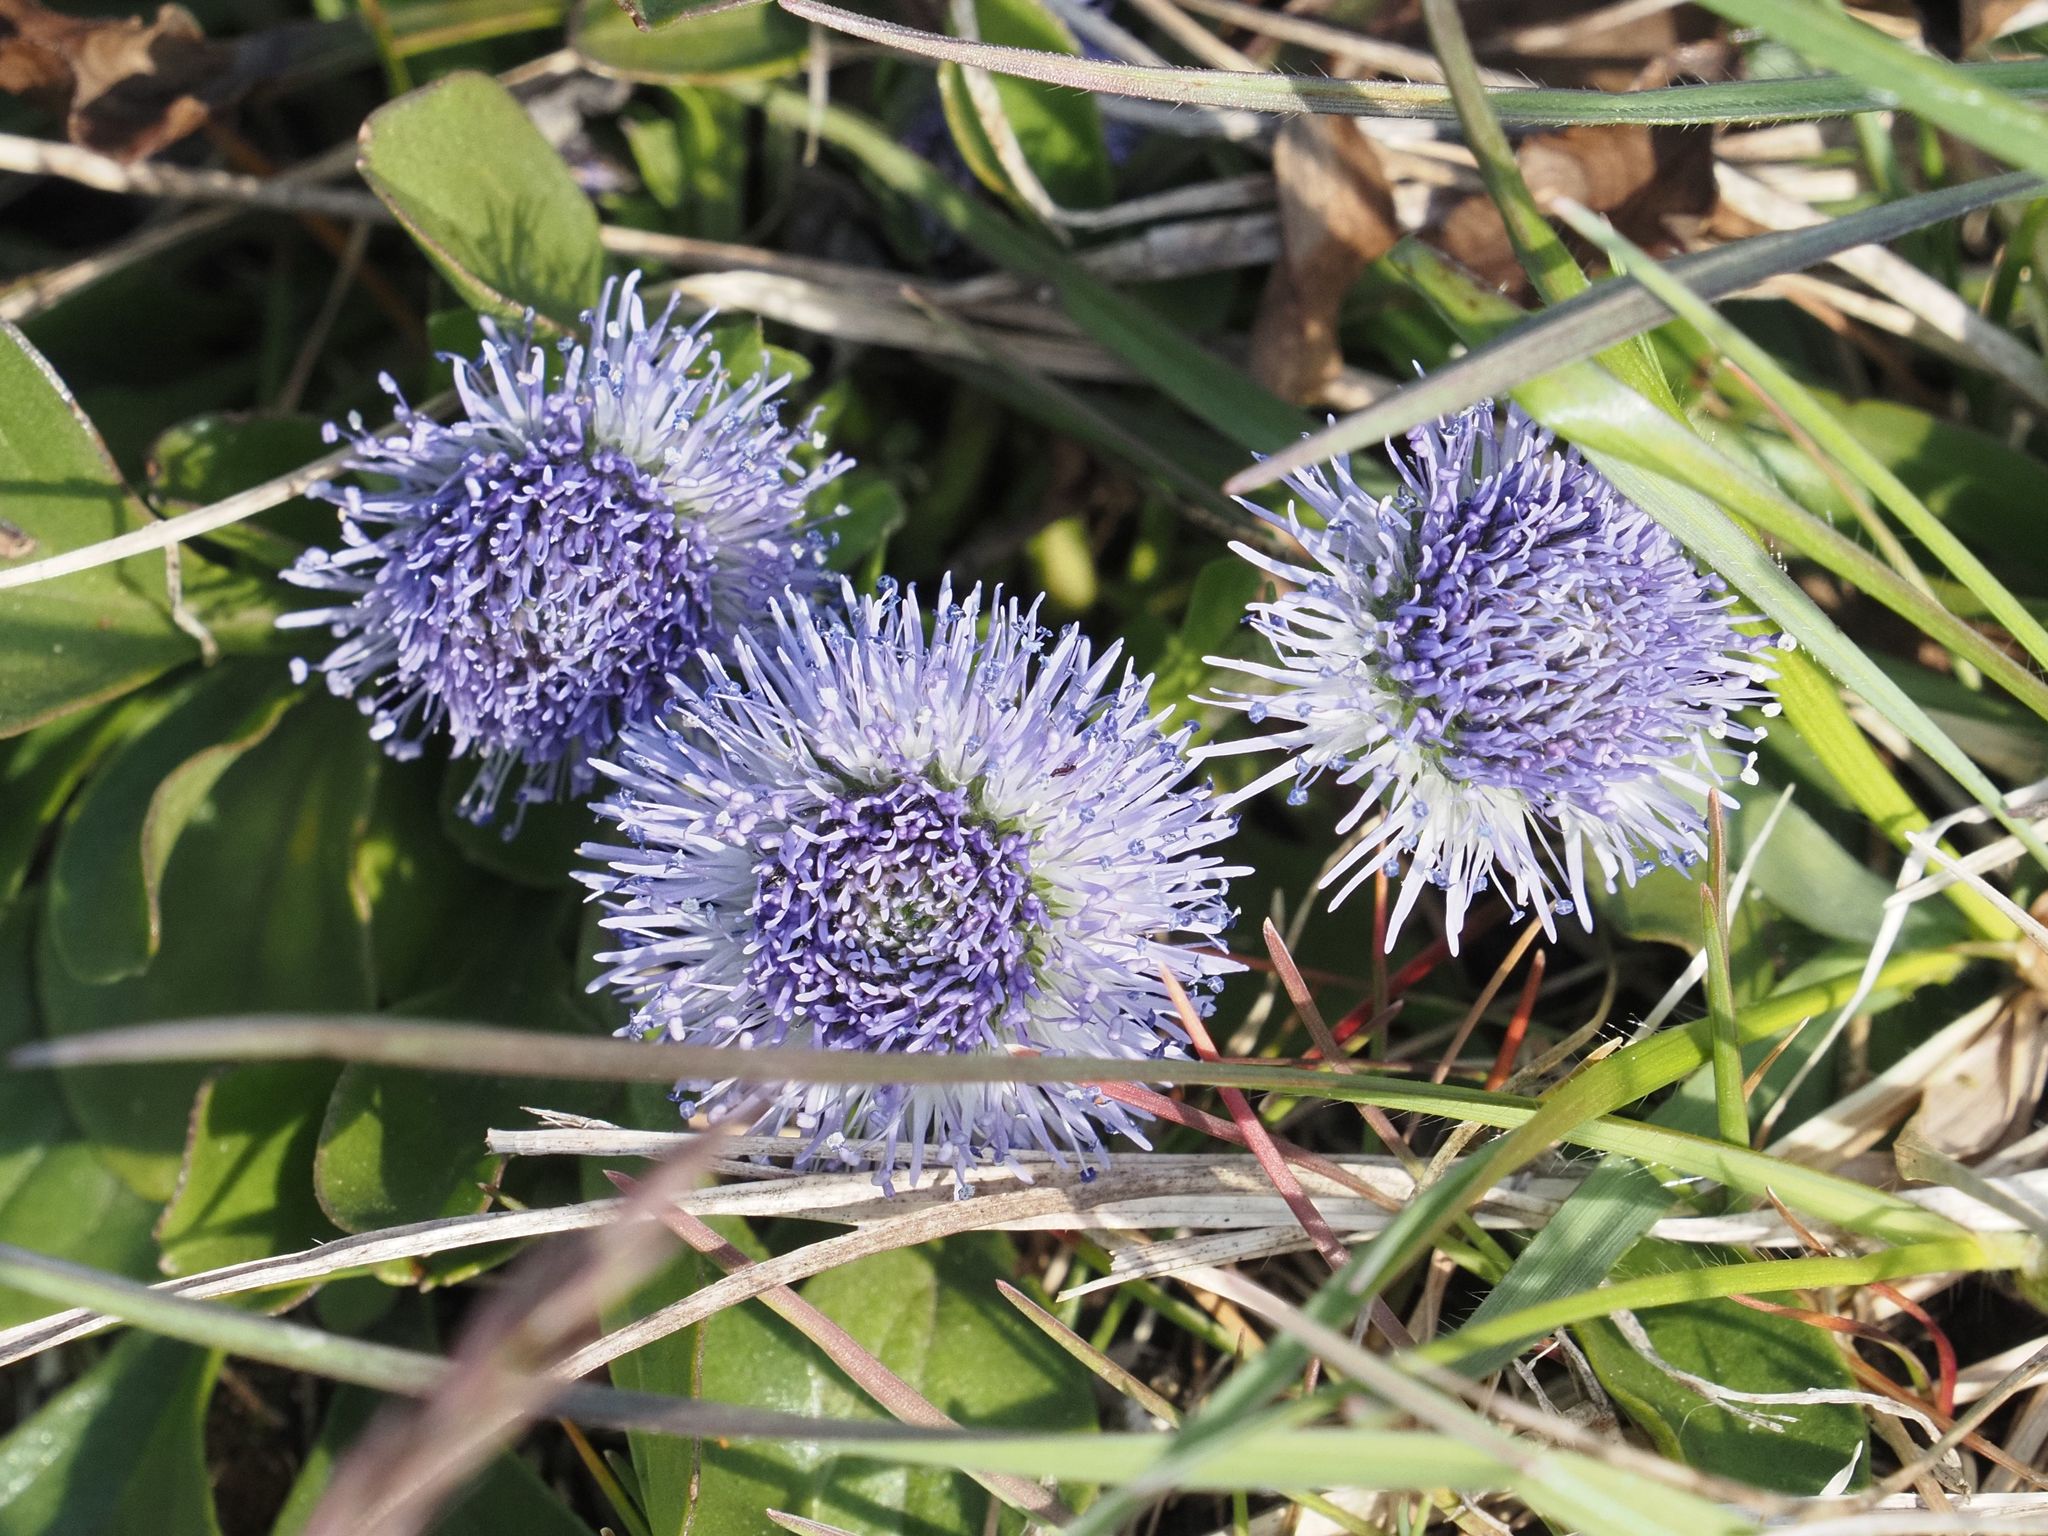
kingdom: Plantae
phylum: Tracheophyta
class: Magnoliopsida
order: Lamiales
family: Plantaginaceae
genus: Globularia
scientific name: Globularia bisnagarica
